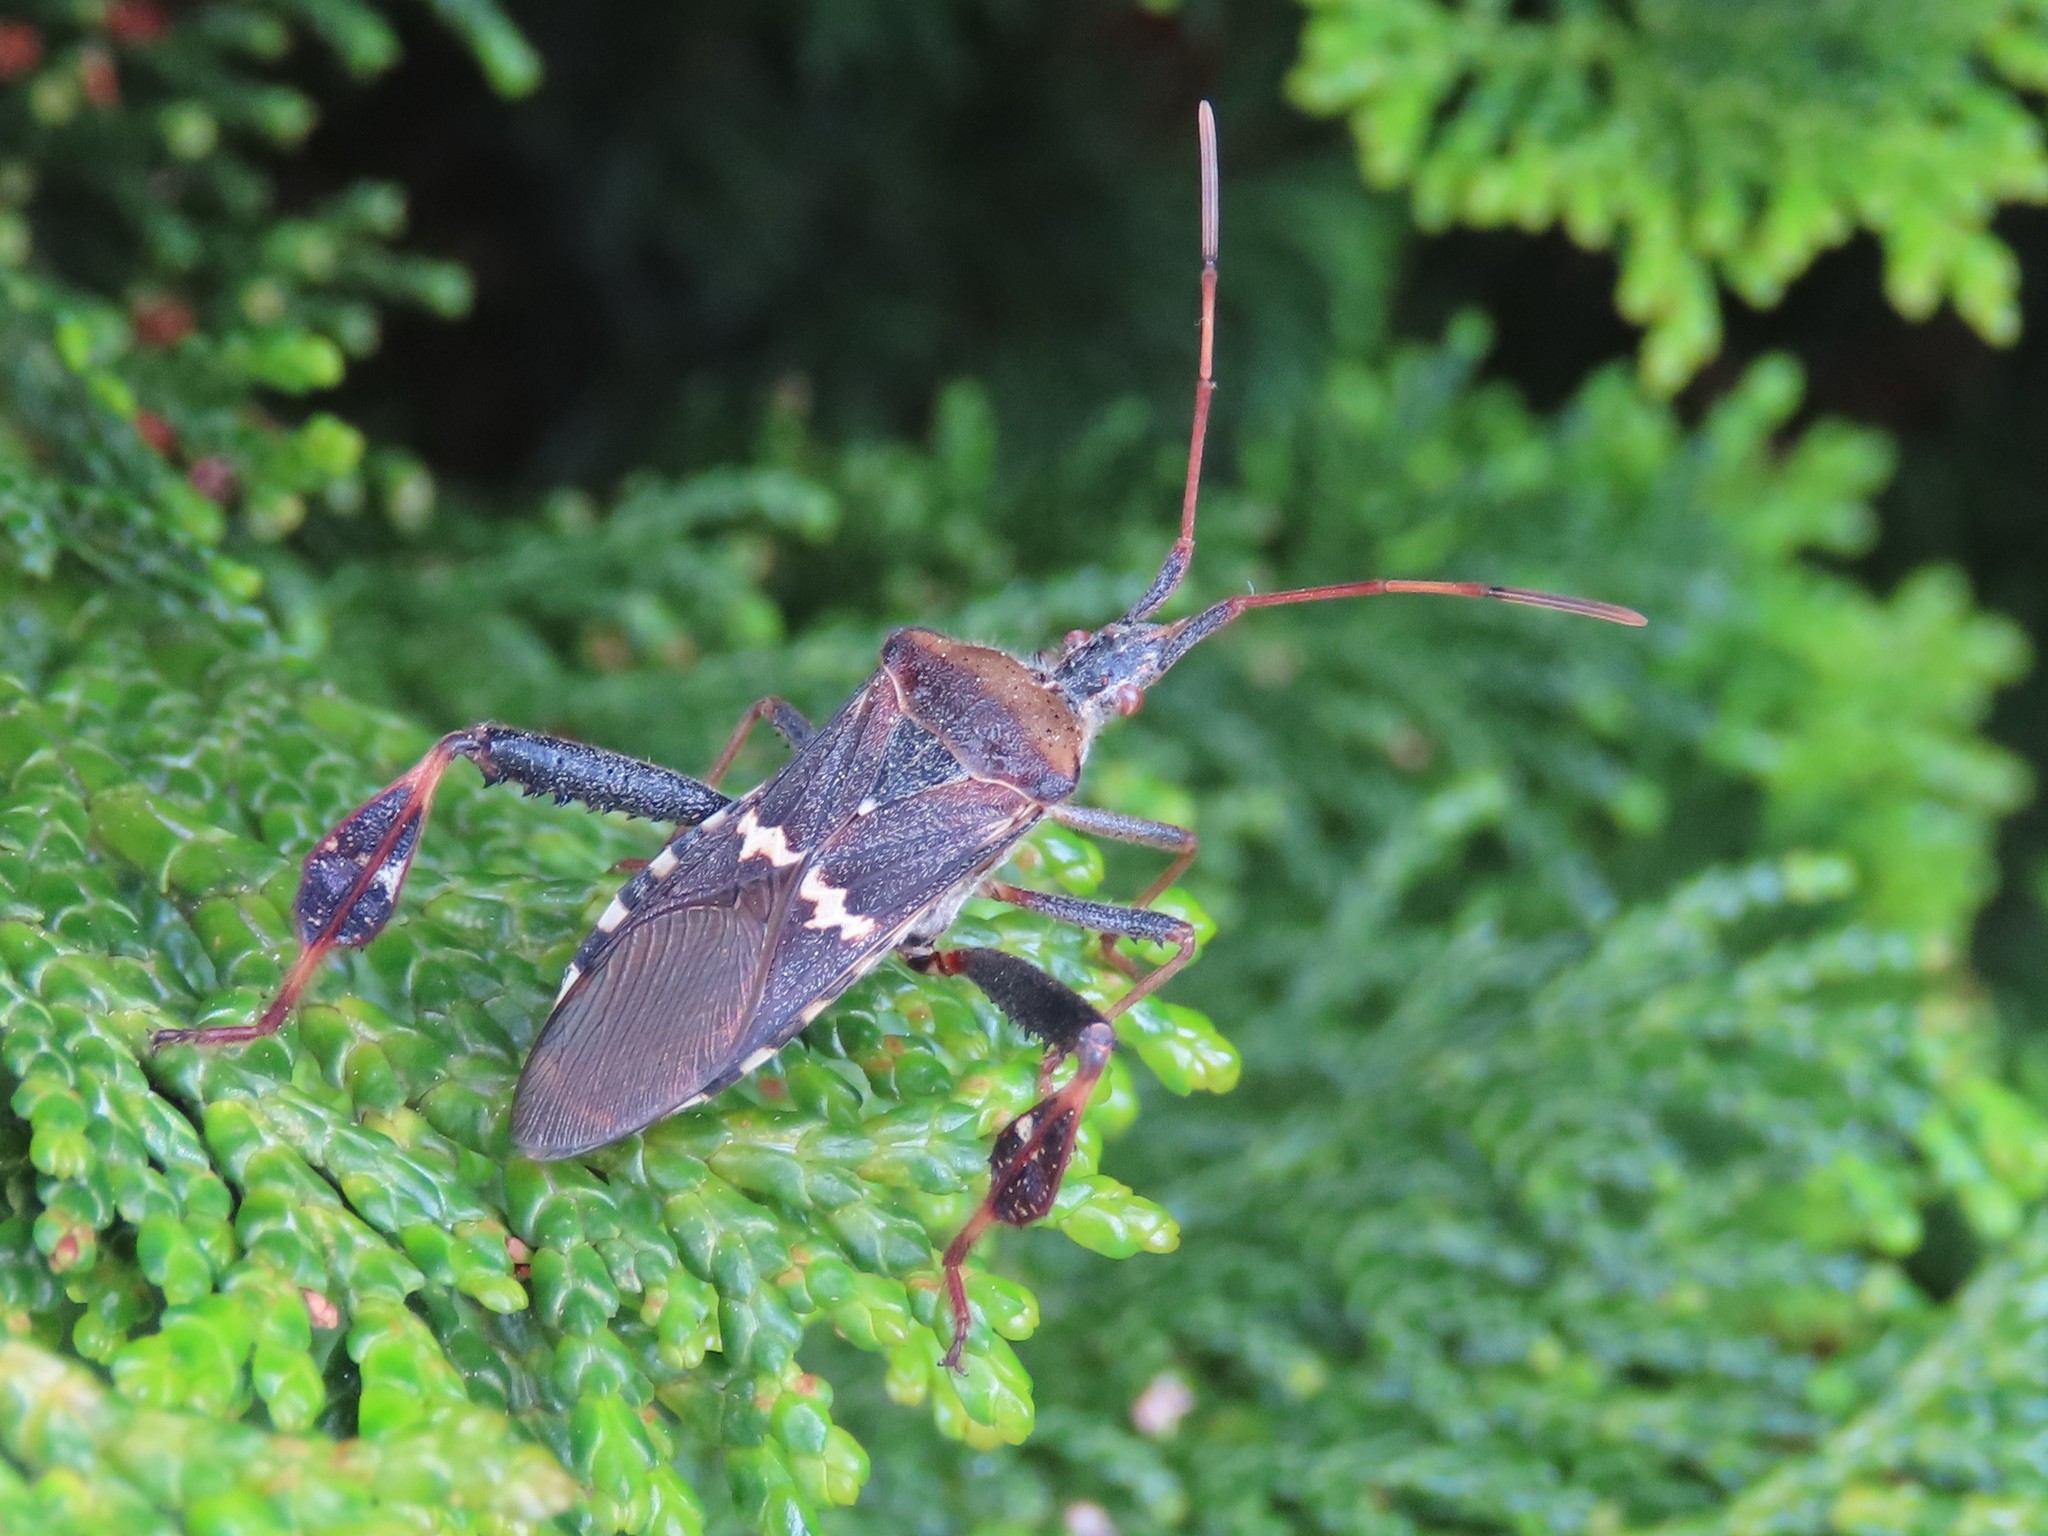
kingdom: Animalia
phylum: Arthropoda
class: Insecta
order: Hemiptera
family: Coreidae
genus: Leptoglossus
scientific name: Leptoglossus clypealis
